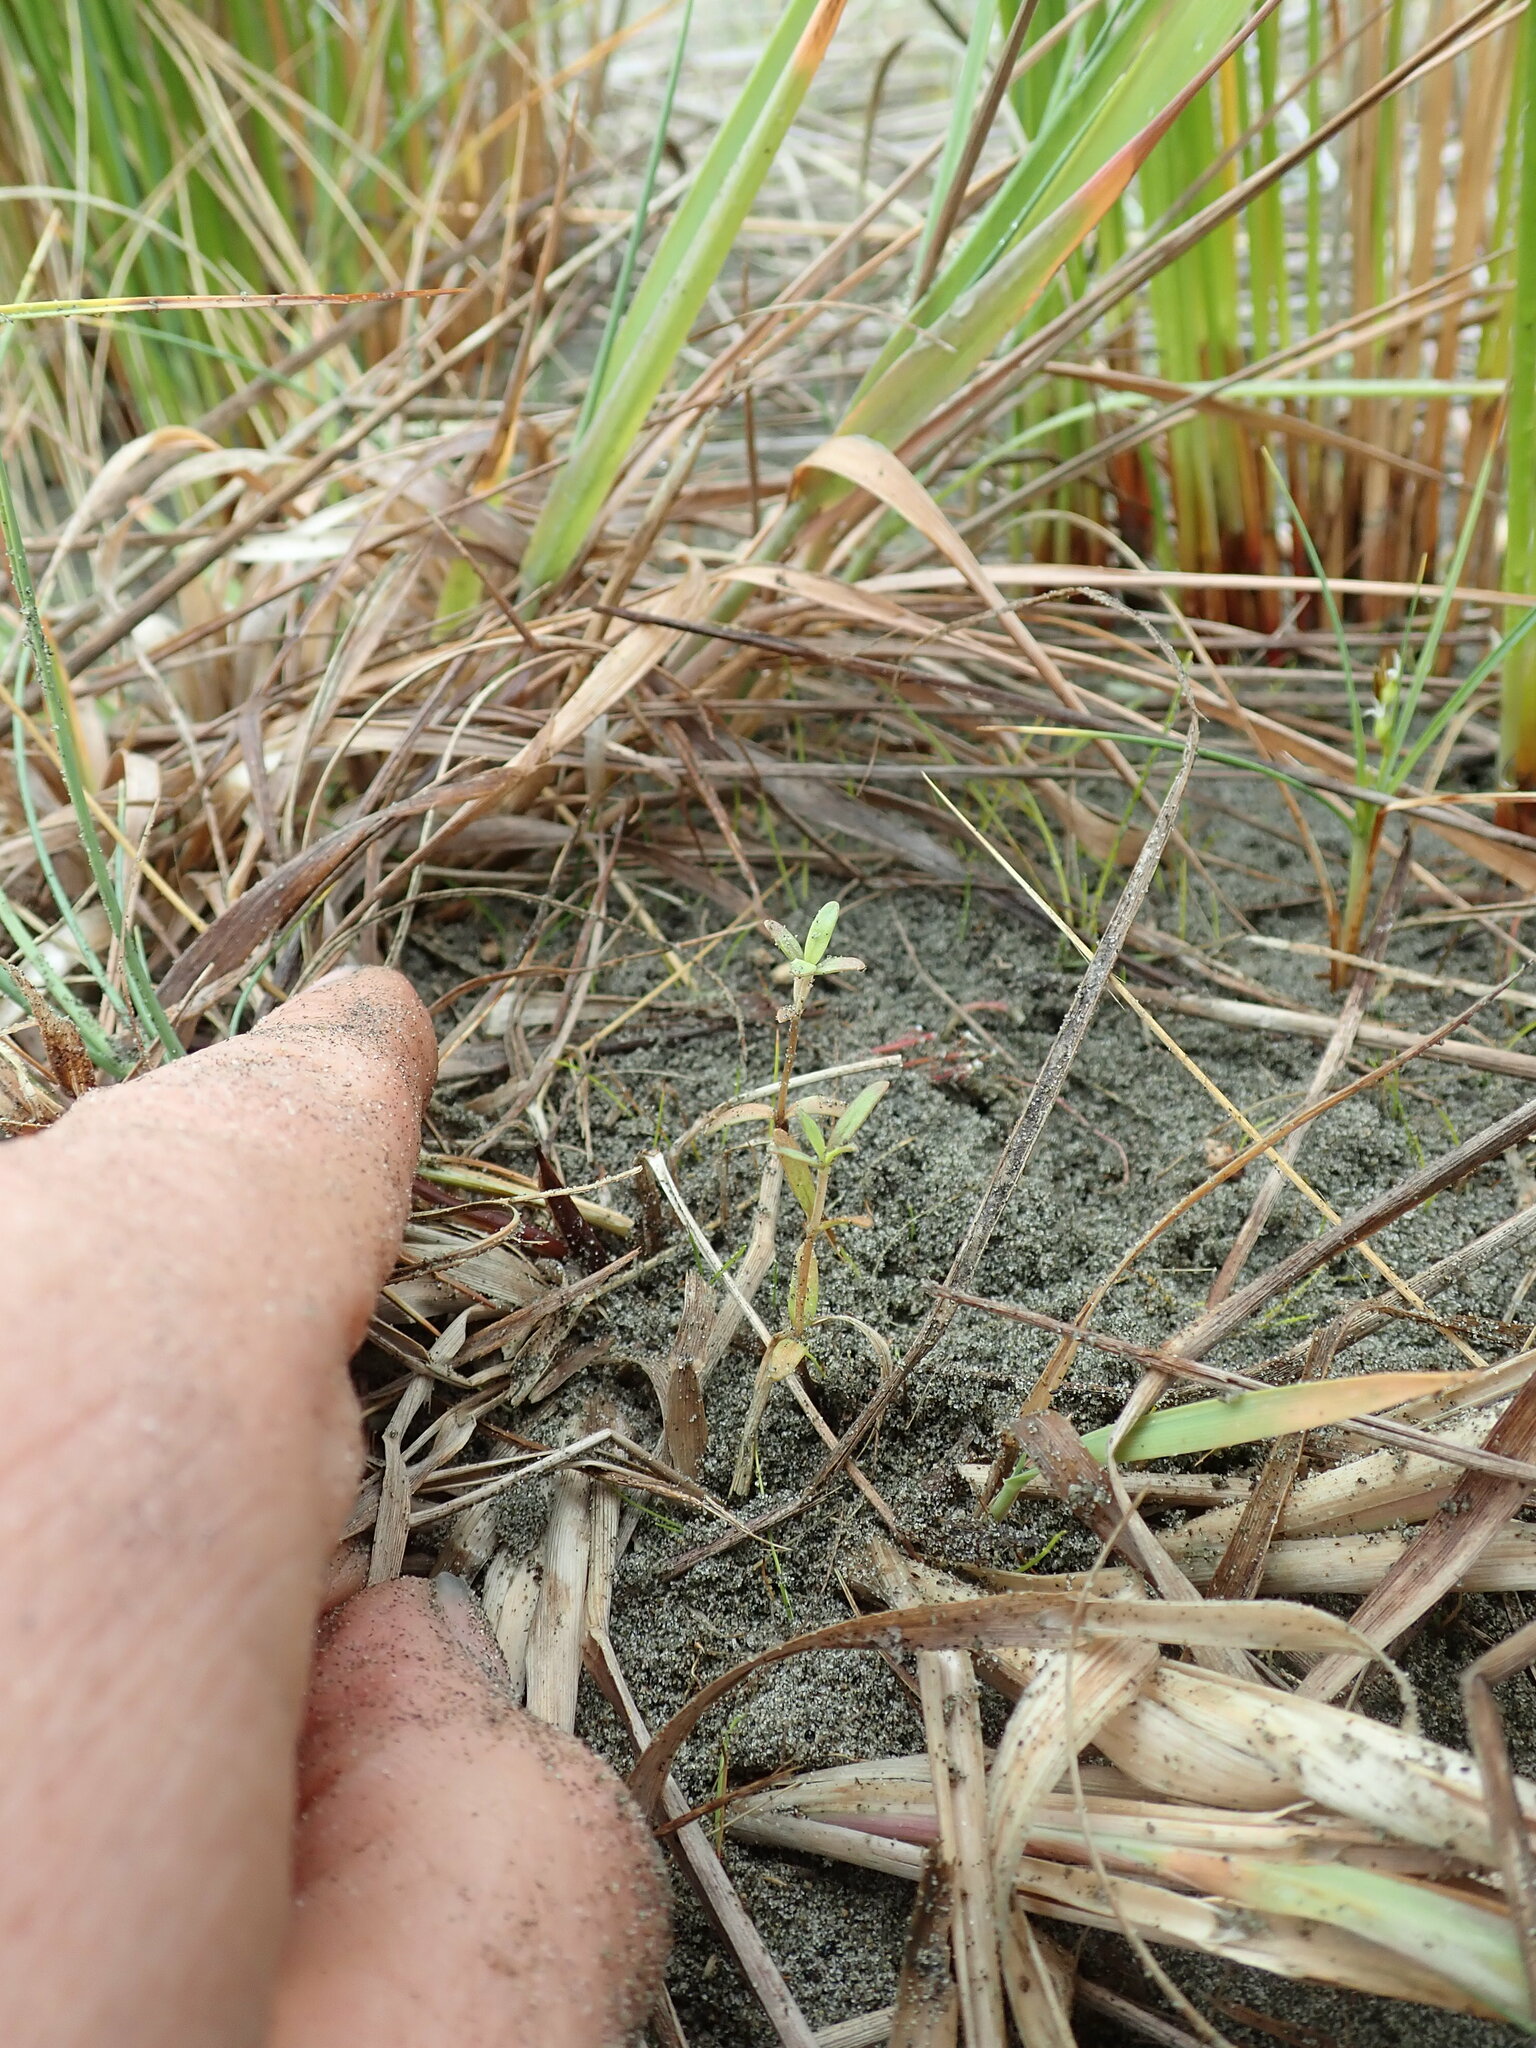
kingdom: Plantae
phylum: Tracheophyta
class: Magnoliopsida
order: Gentianales
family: Rubiaceae
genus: Coprosma
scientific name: Coprosma acerosa
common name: Sand coprosma
